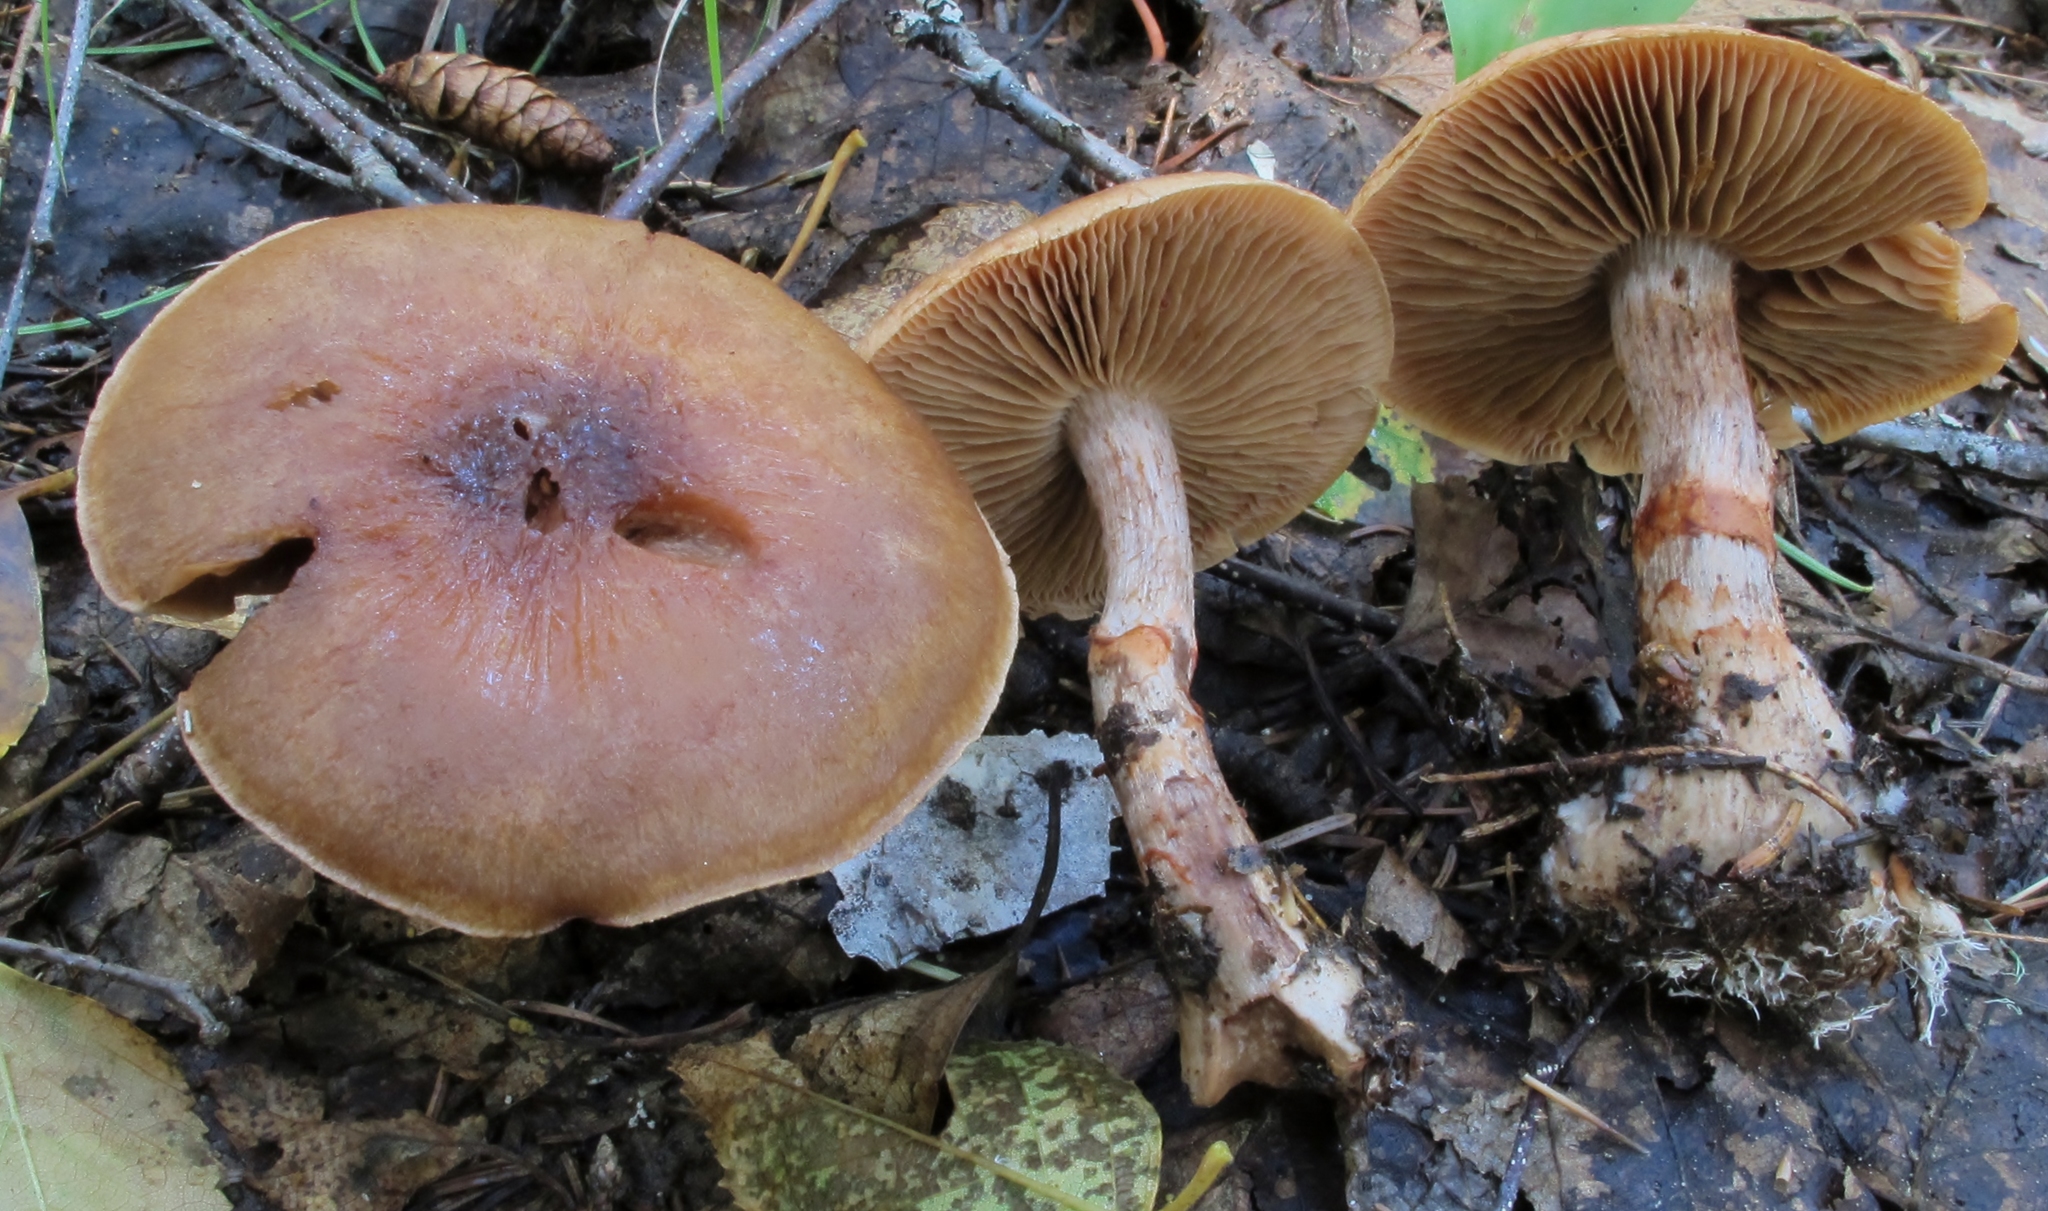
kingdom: Fungi
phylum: Basidiomycota
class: Agaricomycetes
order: Agaricales
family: Cortinariaceae
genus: Cortinarius
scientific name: Cortinarius armillatus
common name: Red banded webcap
